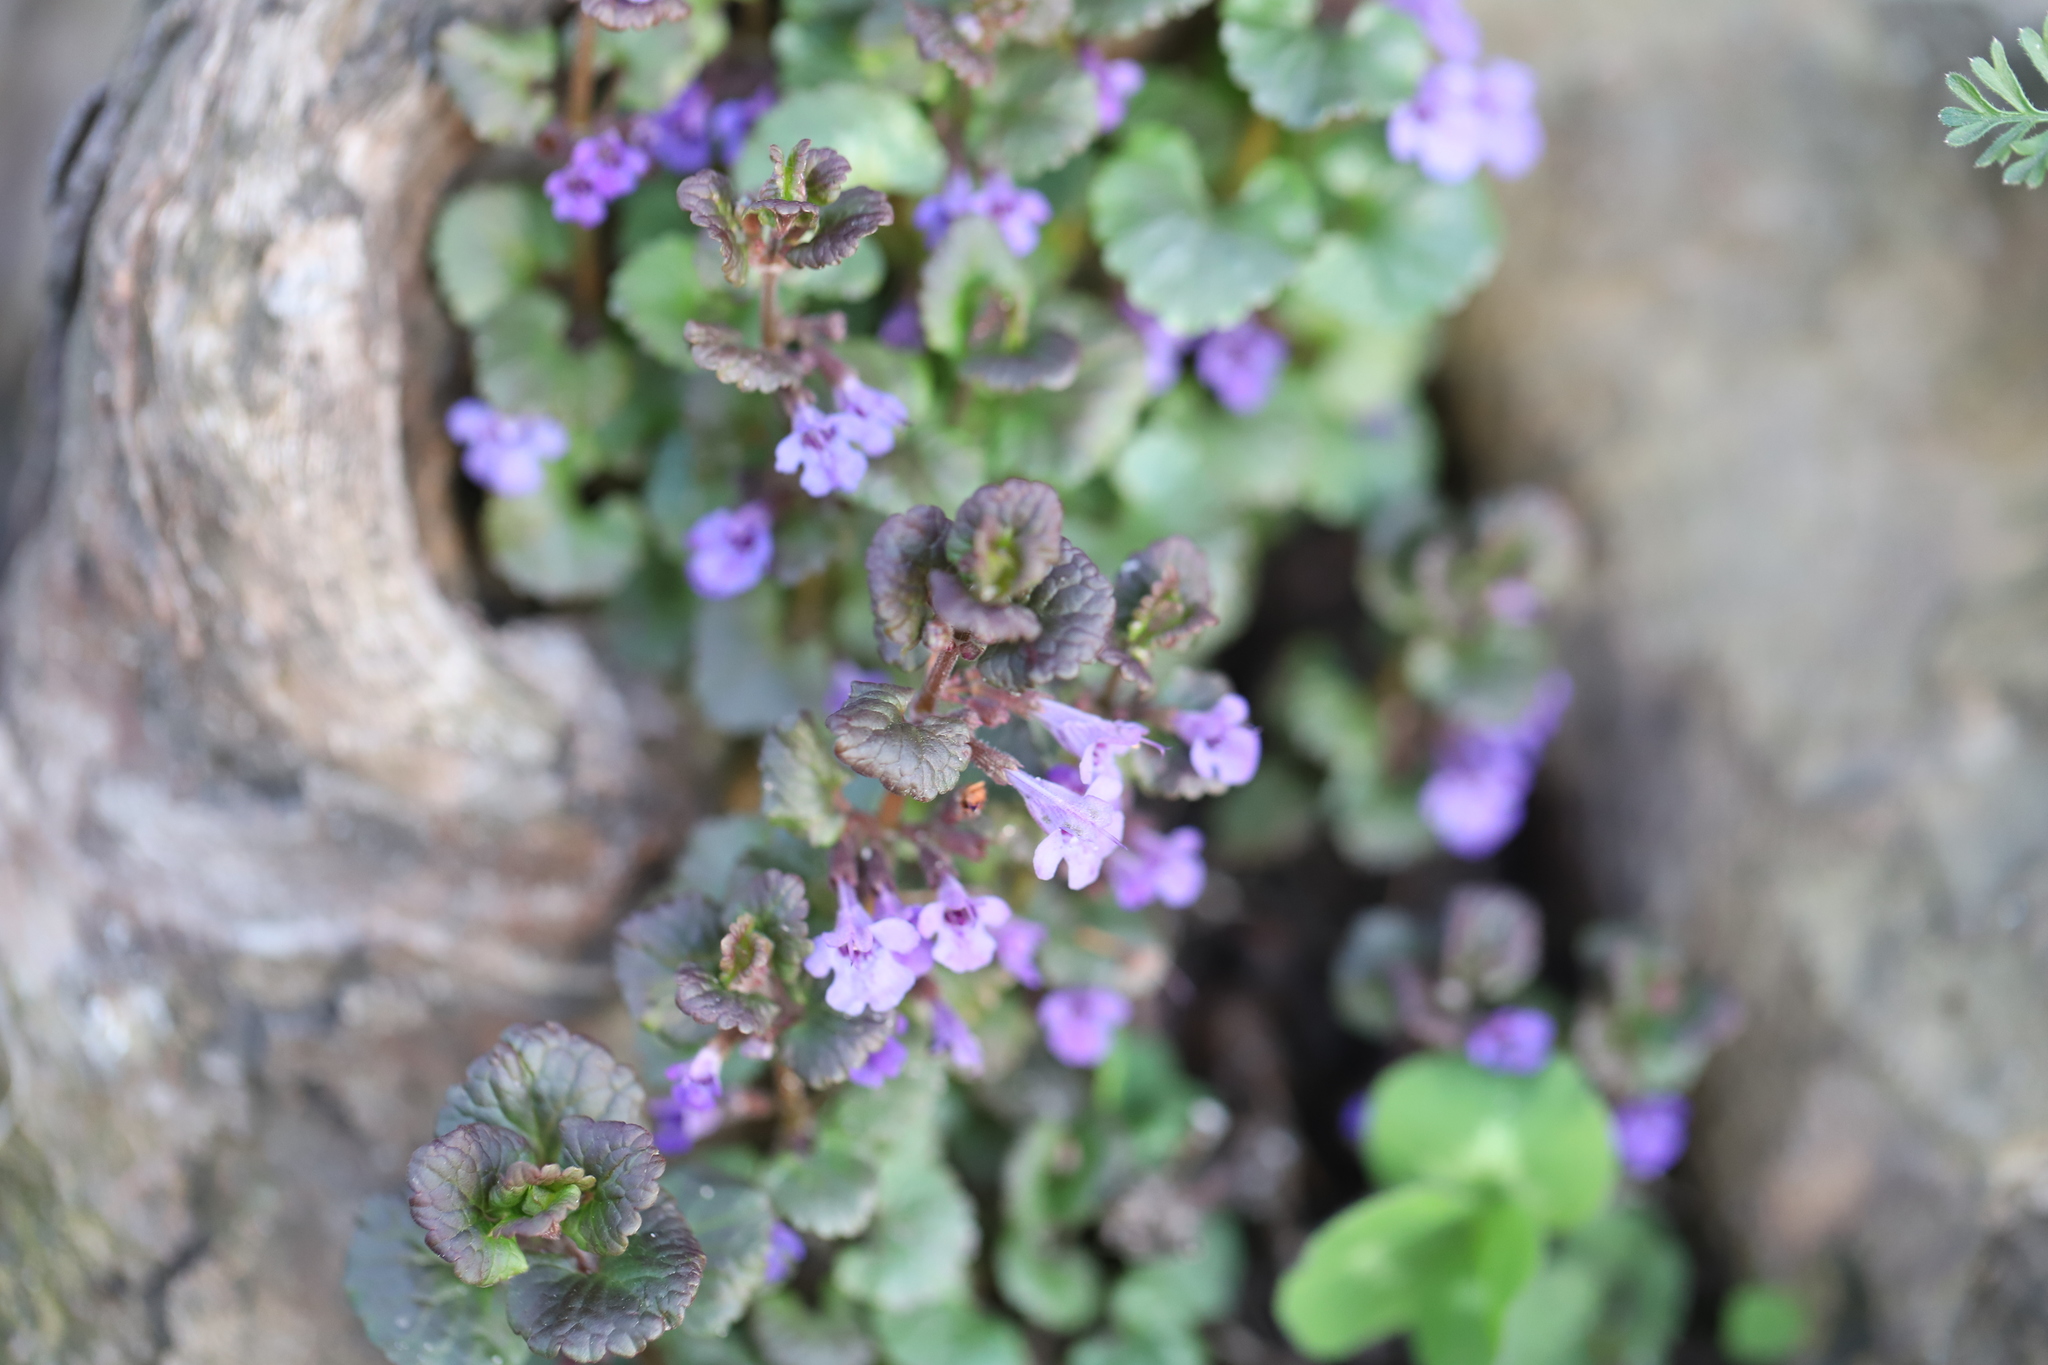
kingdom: Plantae
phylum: Tracheophyta
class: Magnoliopsida
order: Lamiales
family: Lamiaceae
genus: Glechoma
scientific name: Glechoma hederacea
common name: Ground ivy
